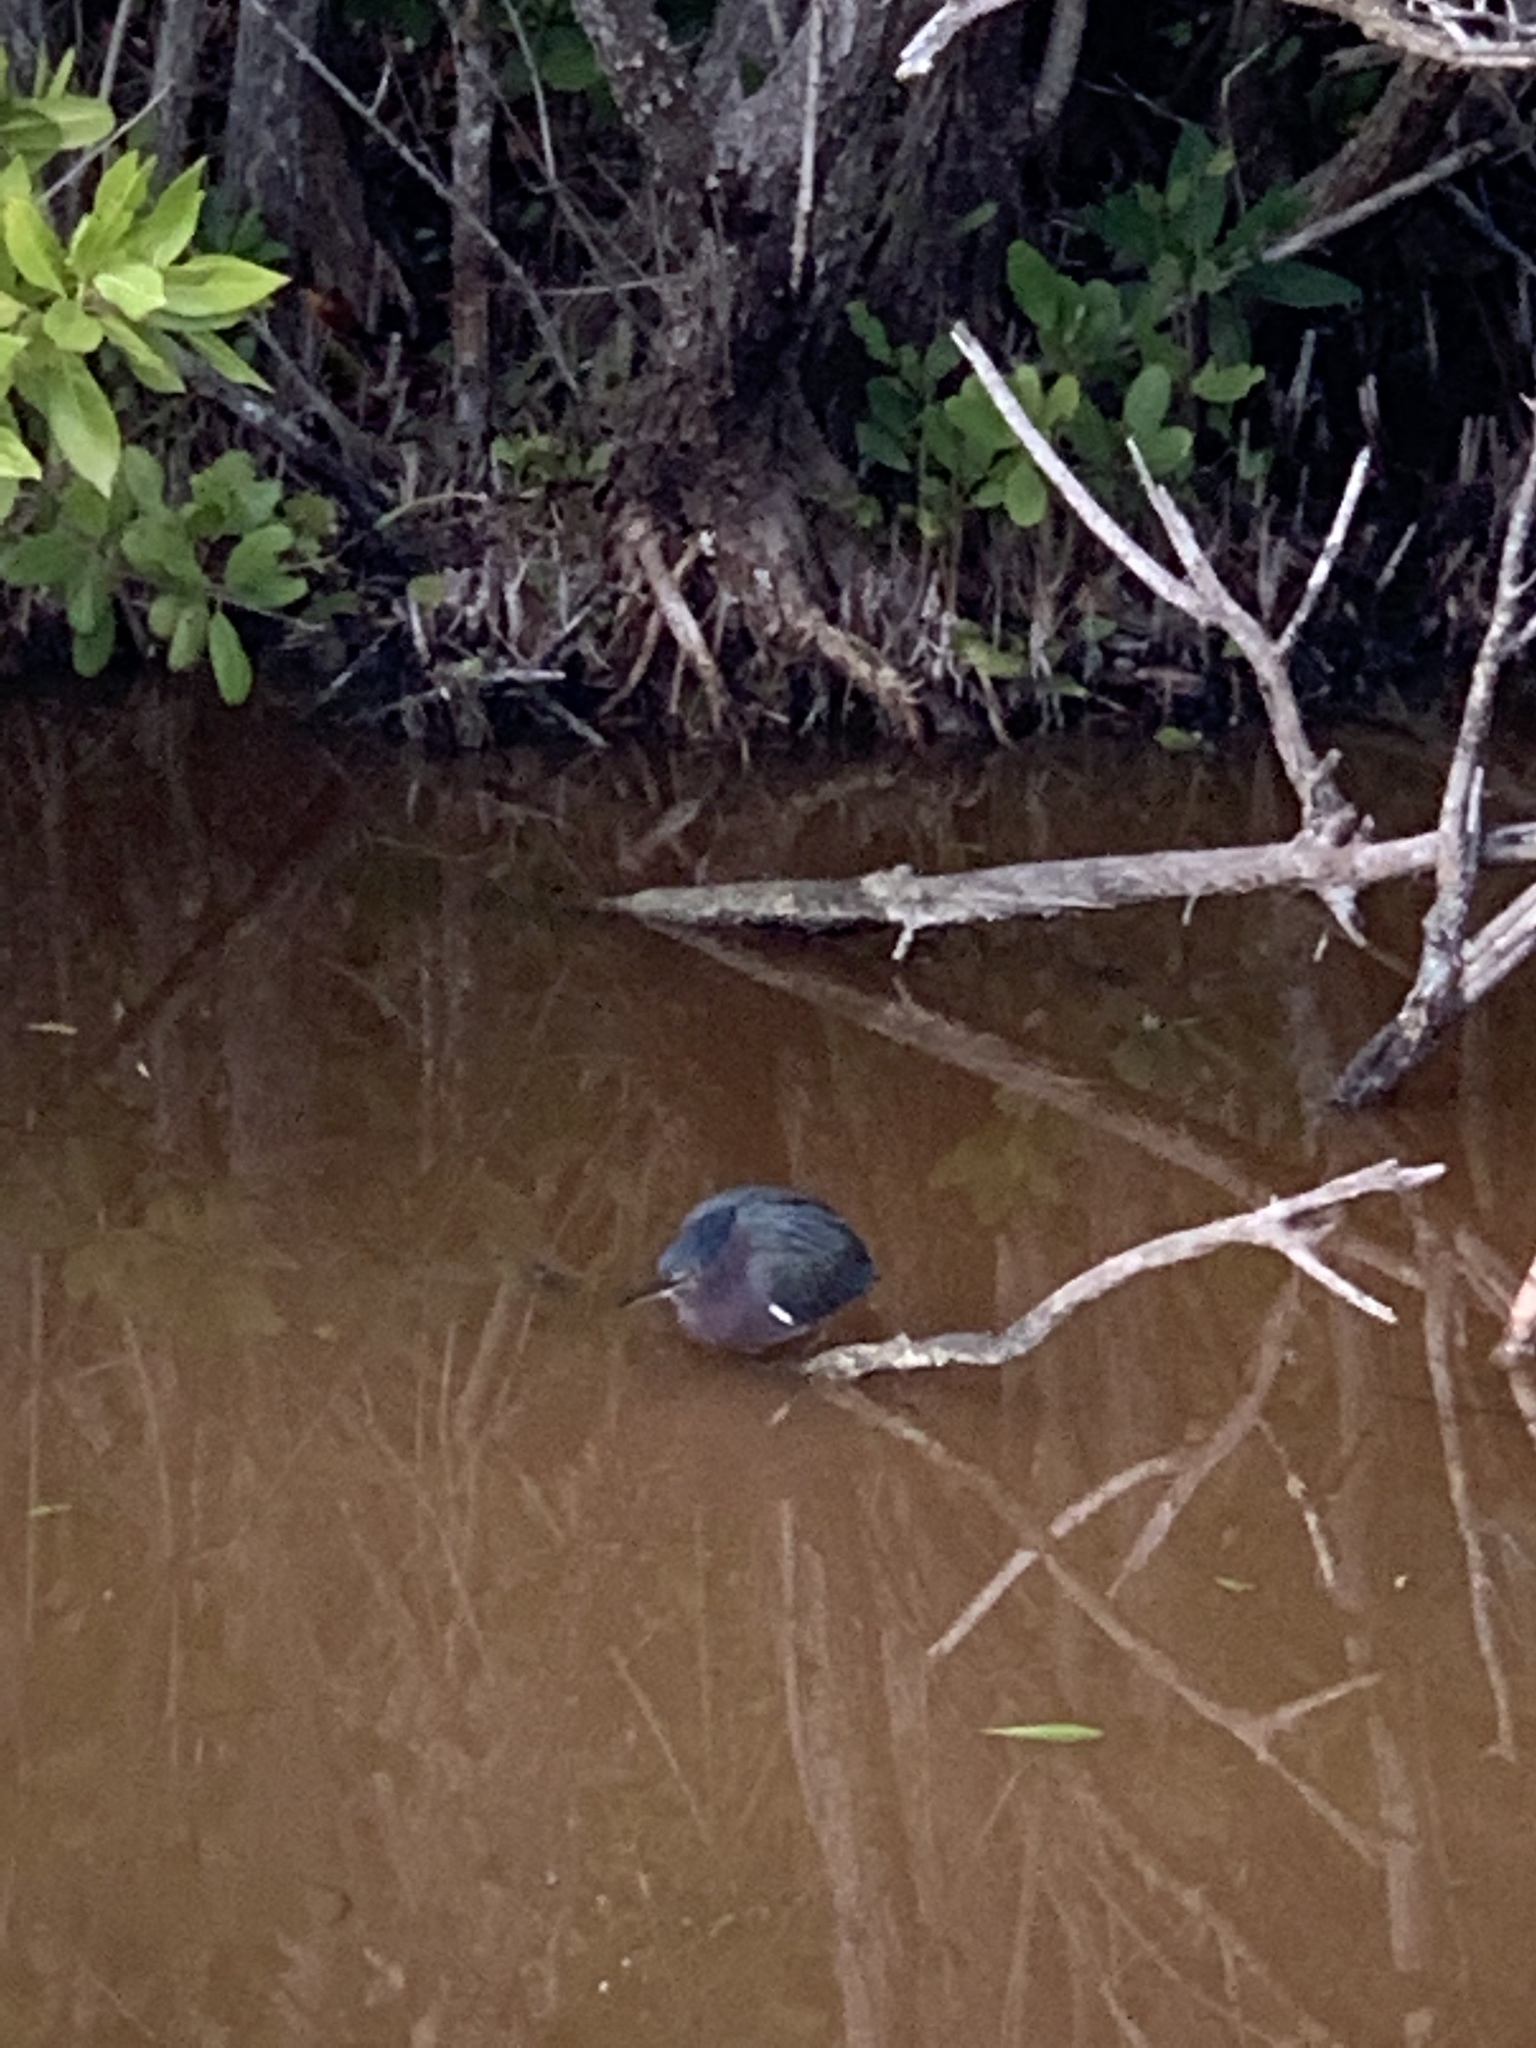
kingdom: Animalia
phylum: Chordata
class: Aves
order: Pelecaniformes
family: Ardeidae
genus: Butorides
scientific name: Butorides virescens
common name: Green heron
